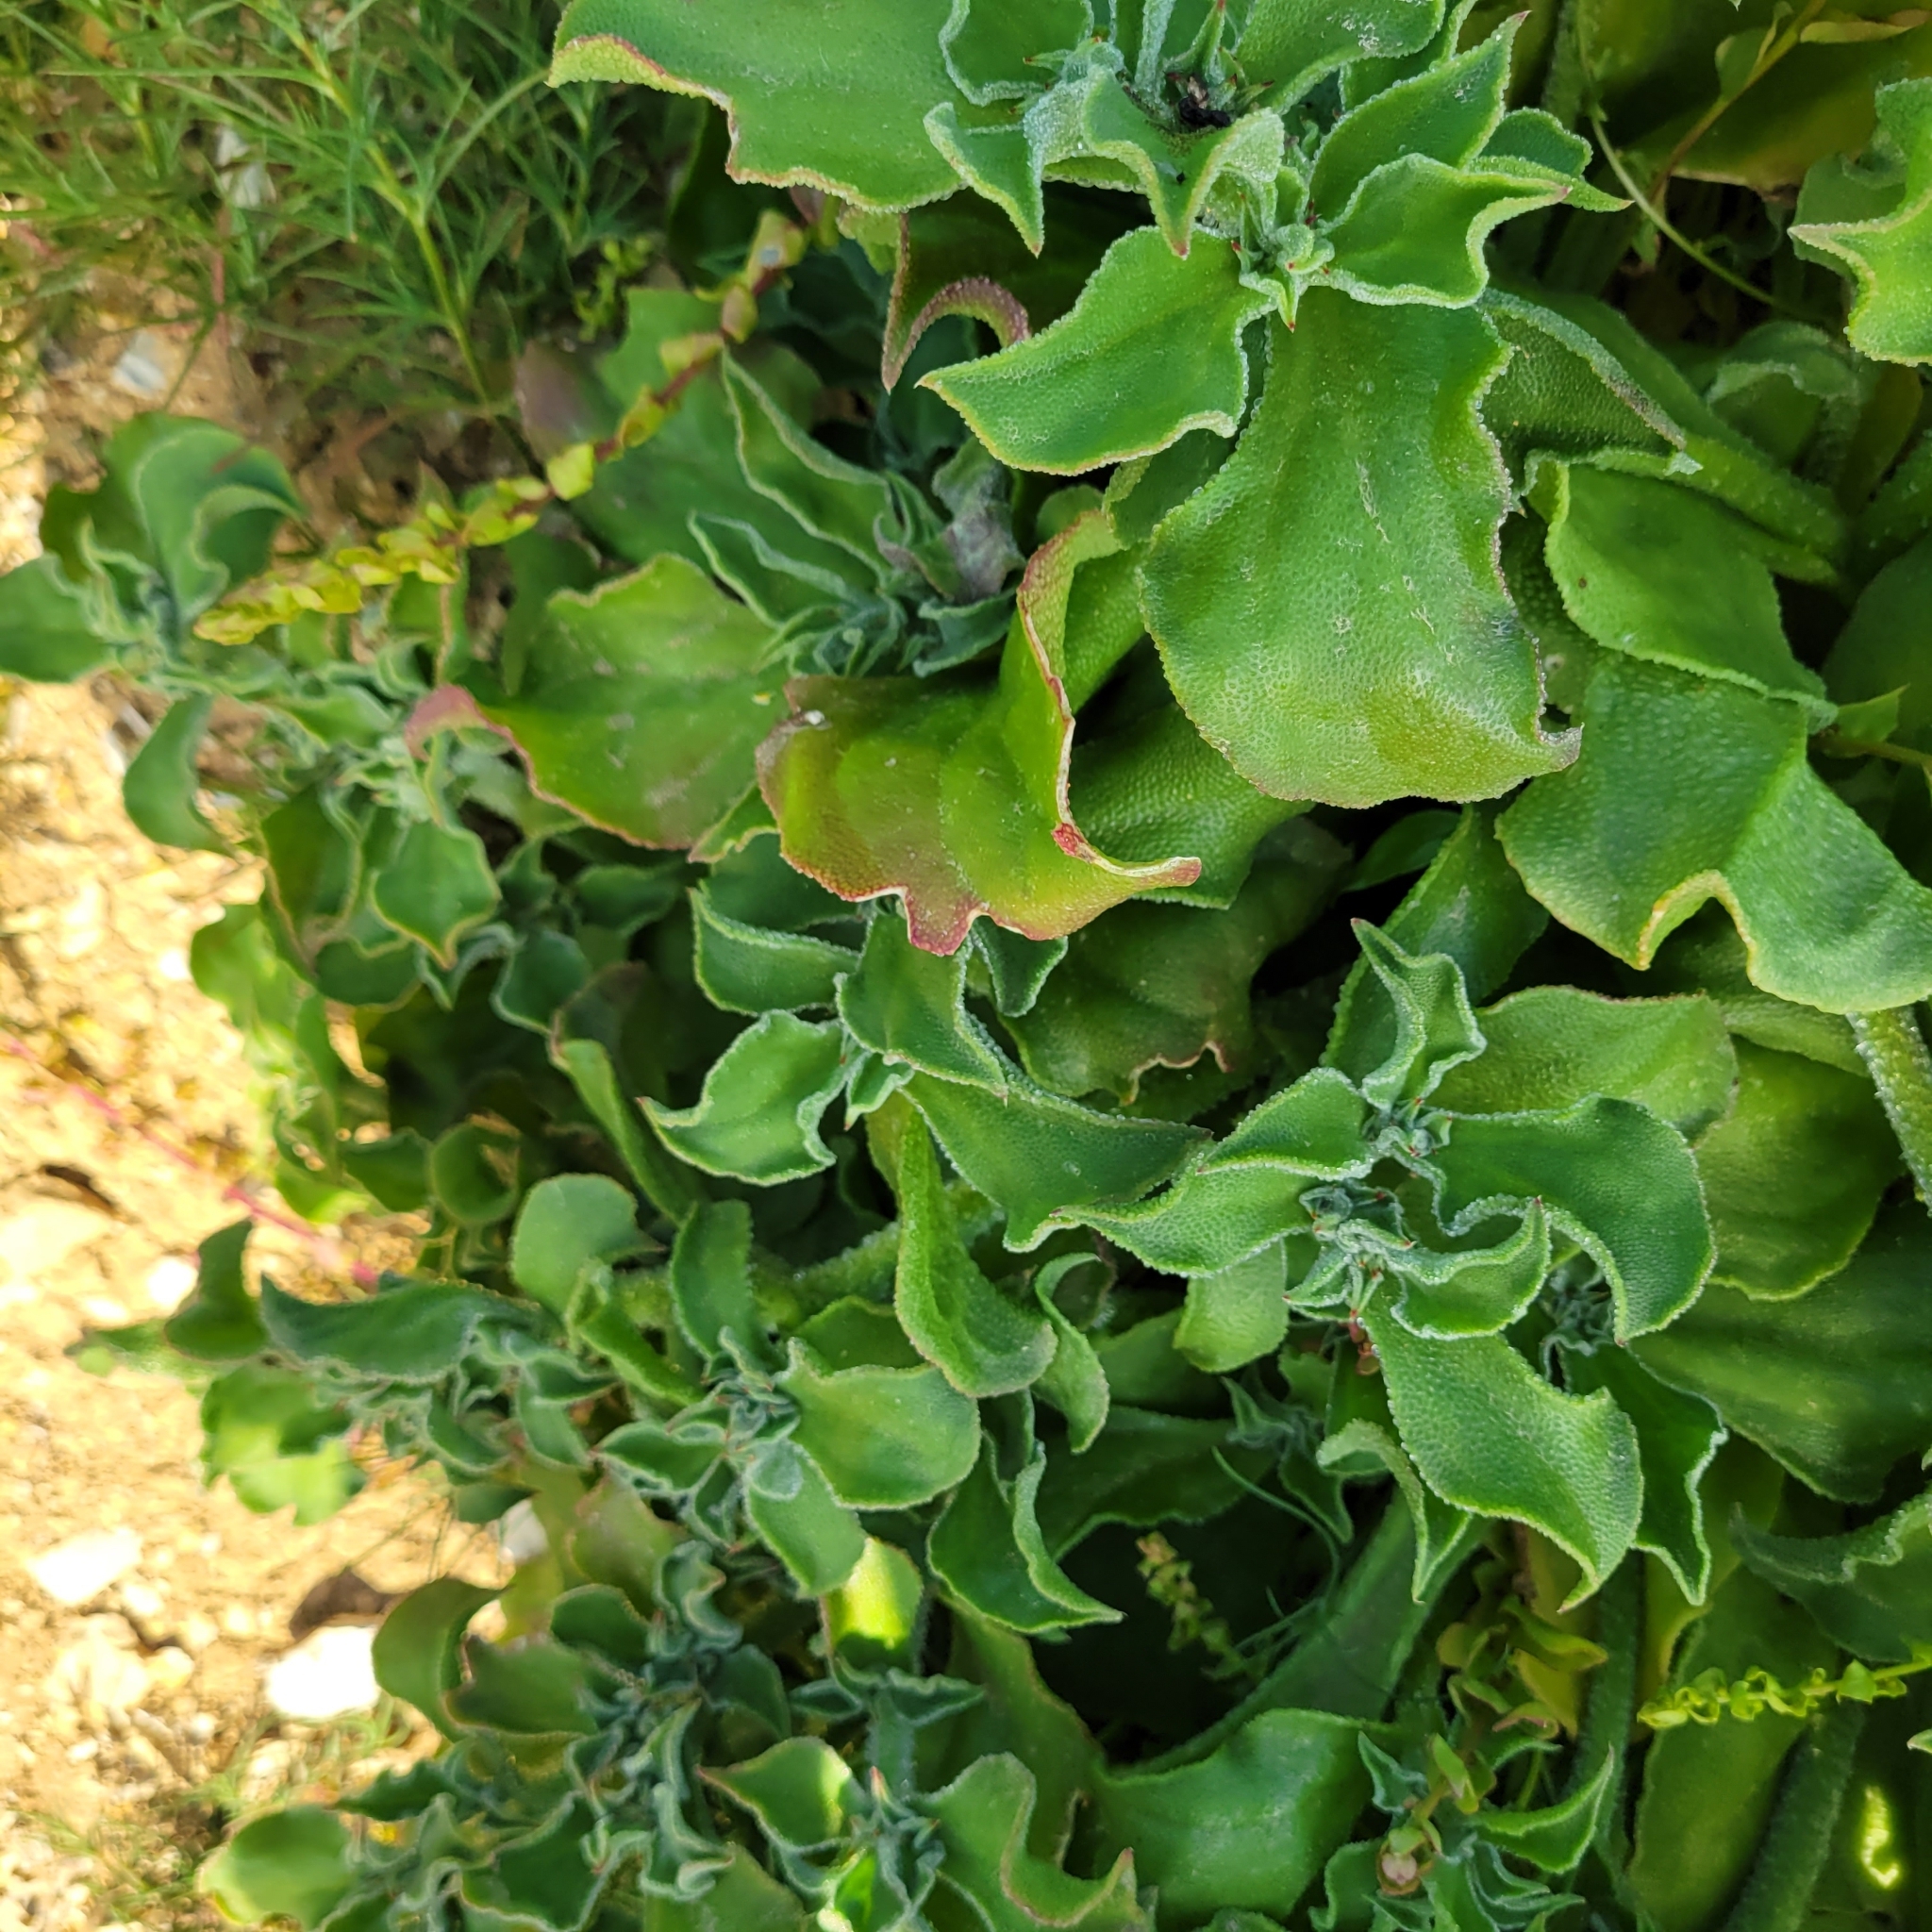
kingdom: Plantae
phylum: Tracheophyta
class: Magnoliopsida
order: Caryophyllales
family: Aizoaceae
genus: Mesembryanthemum
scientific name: Mesembryanthemum crystallinum
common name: Common iceplant
